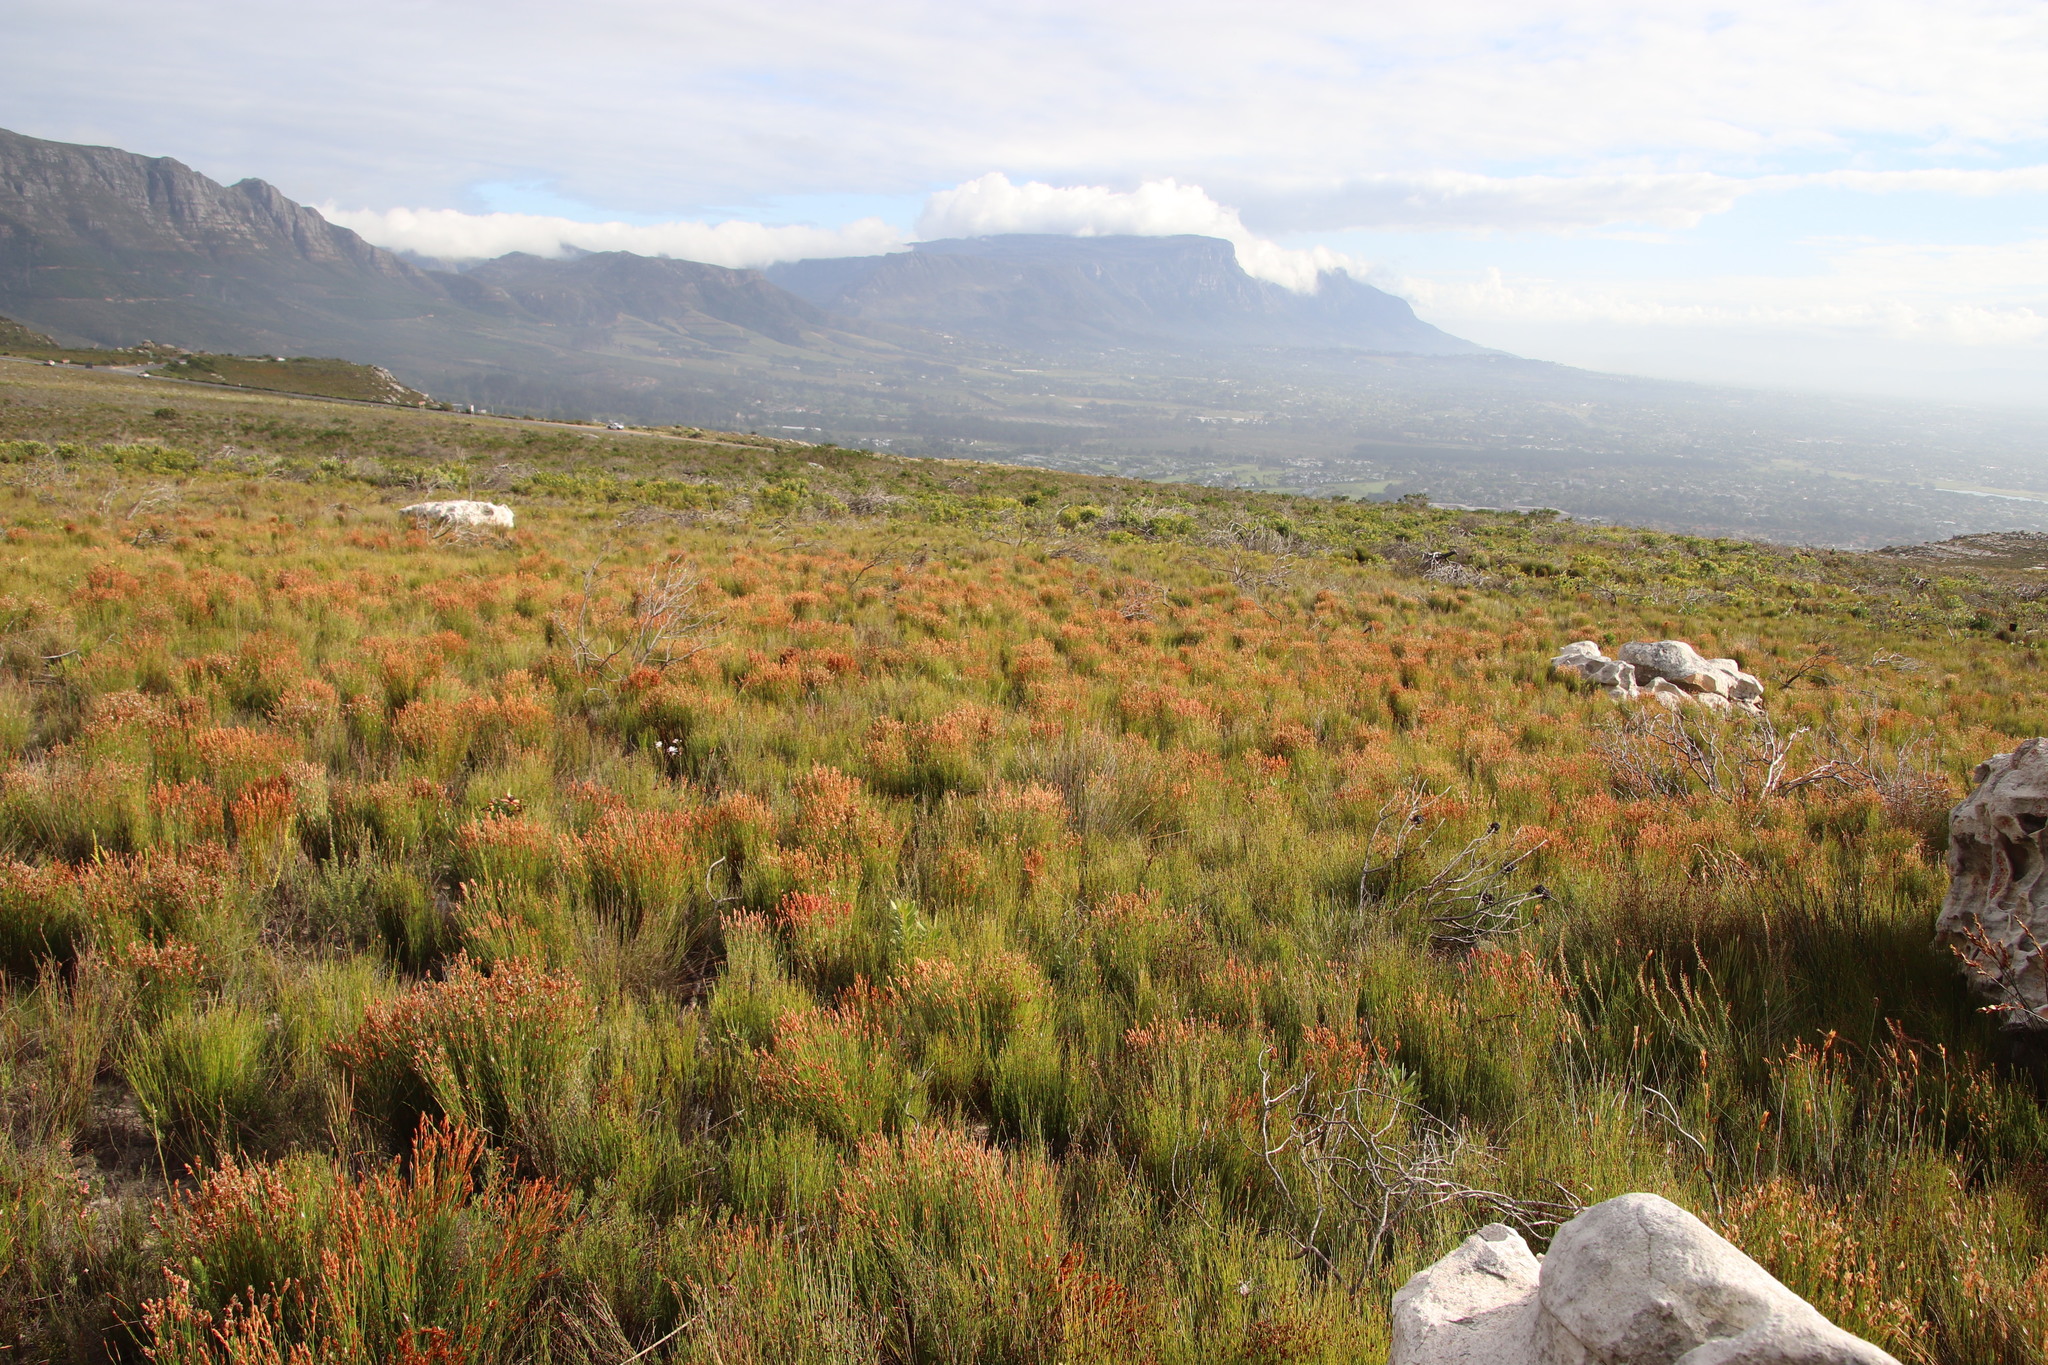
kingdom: Plantae
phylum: Tracheophyta
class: Liliopsida
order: Poales
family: Restionaceae
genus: Elegia
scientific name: Elegia stipularis
